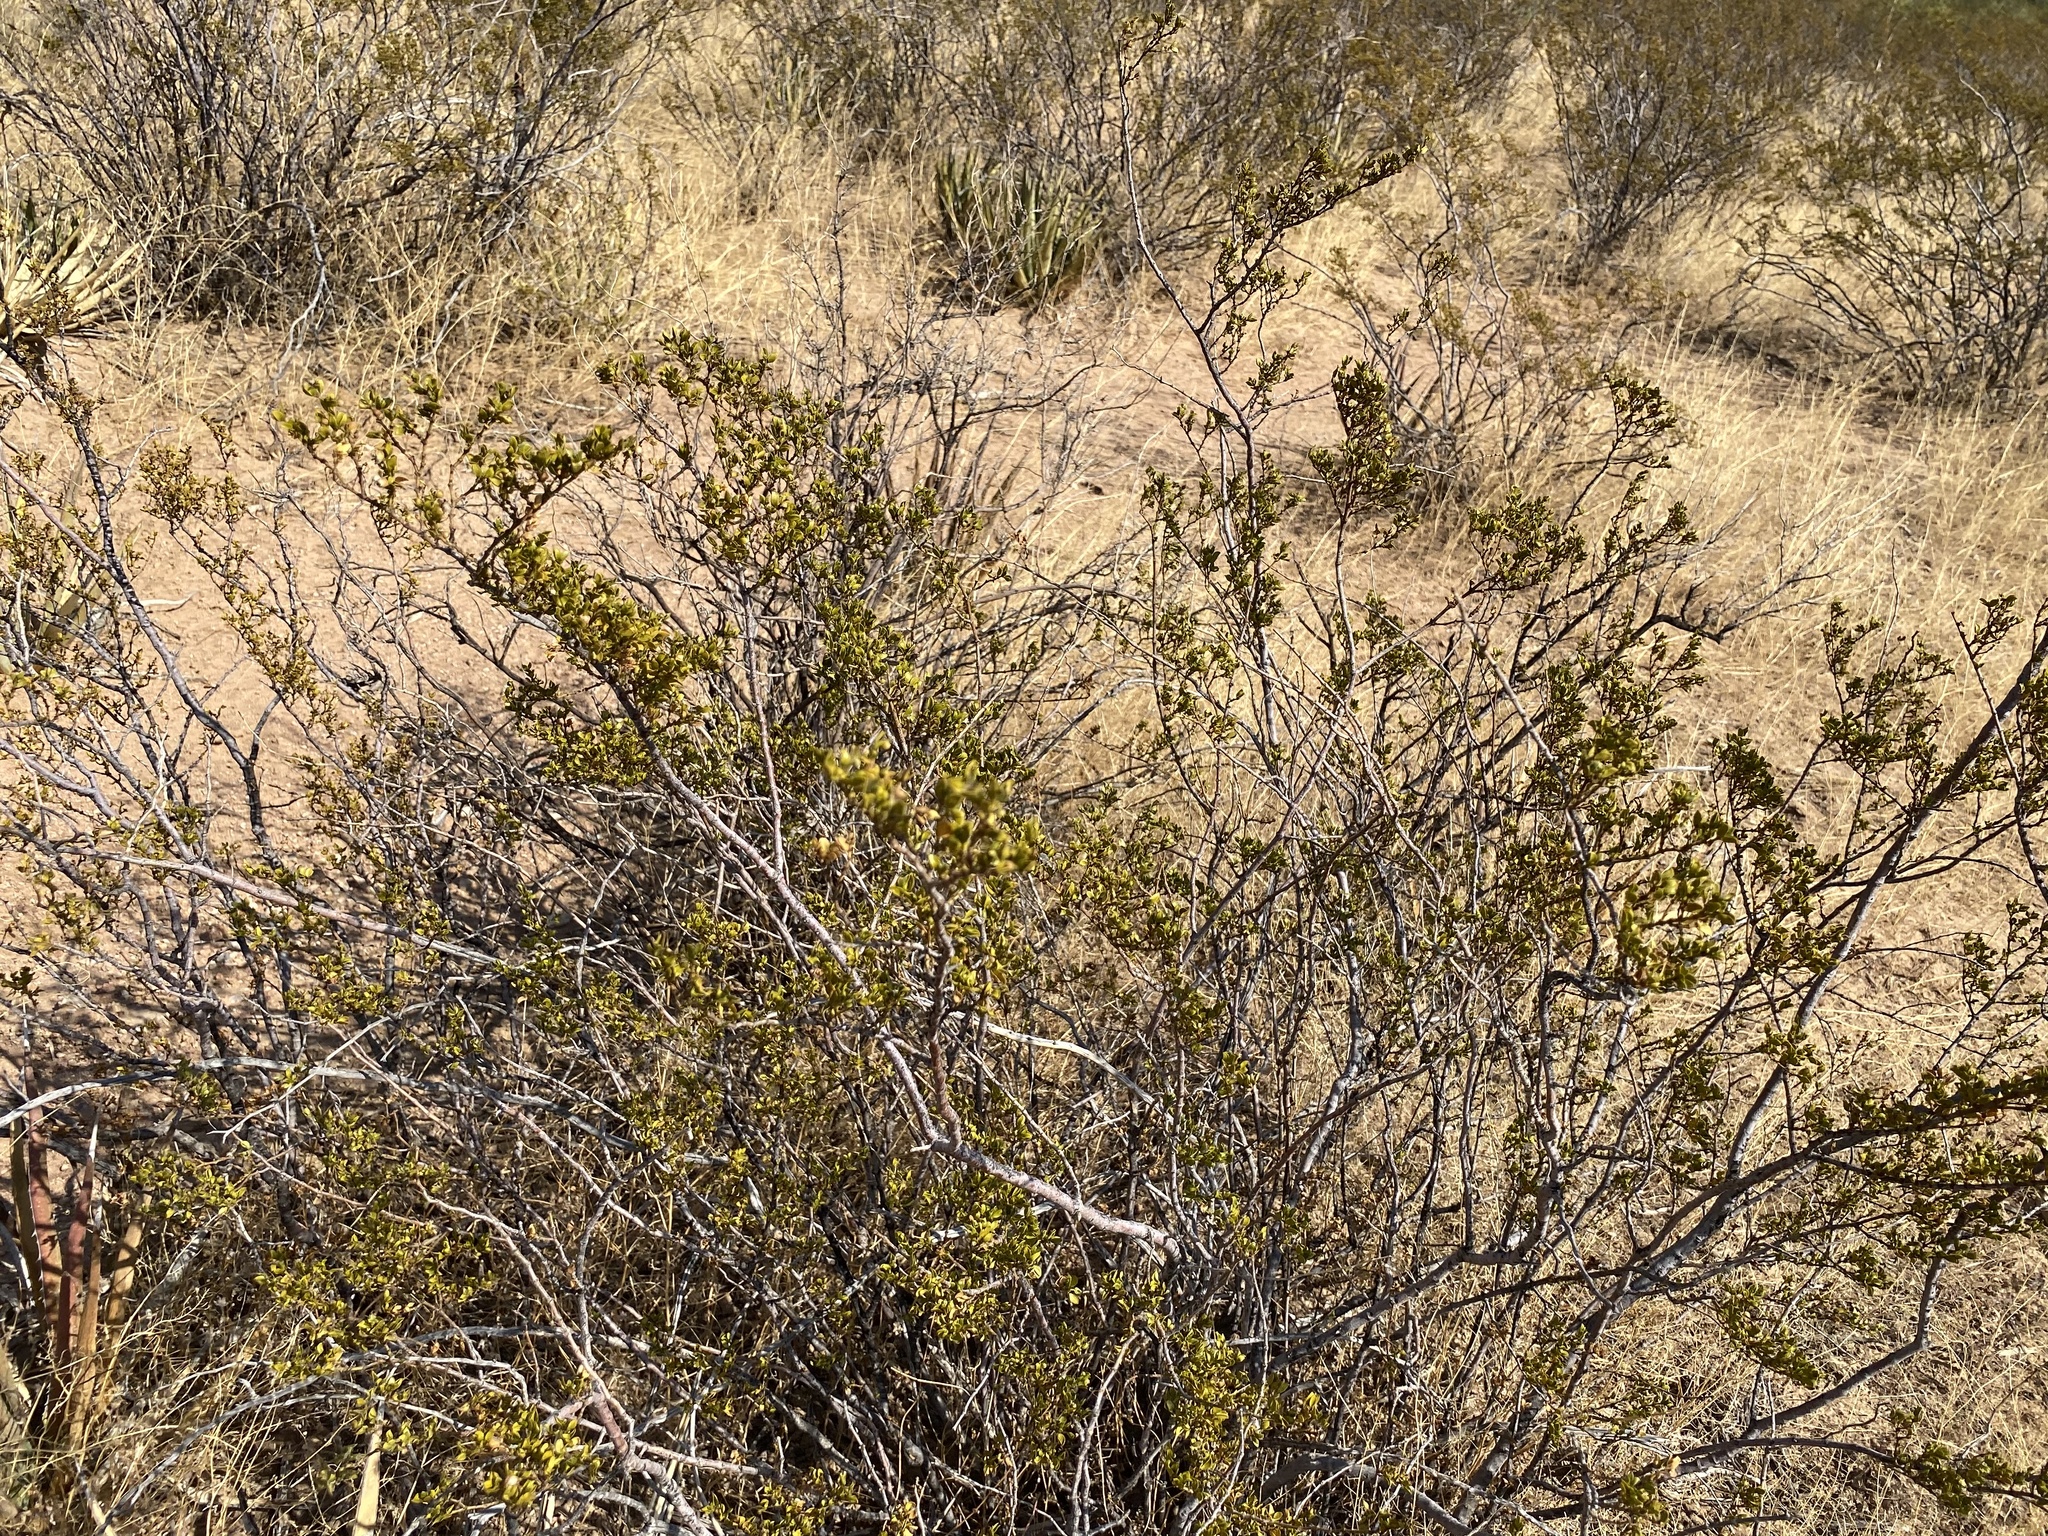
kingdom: Plantae
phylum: Tracheophyta
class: Magnoliopsida
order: Zygophyllales
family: Zygophyllaceae
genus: Larrea
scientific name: Larrea tridentata
